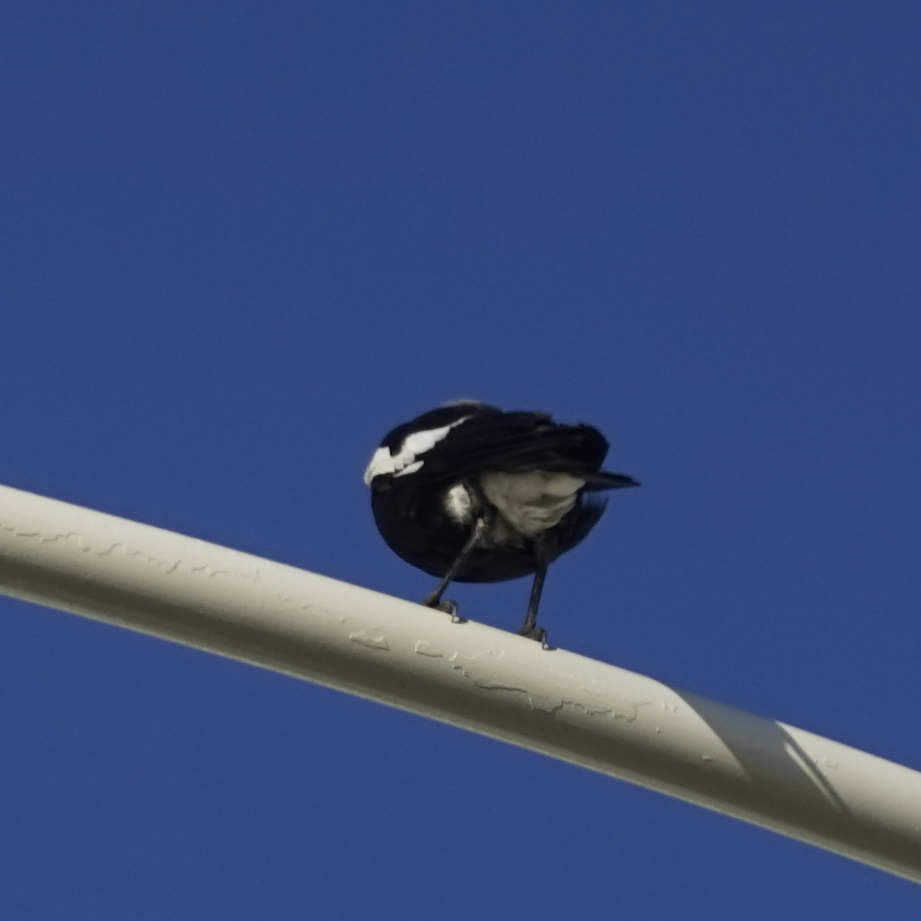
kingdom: Animalia
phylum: Chordata
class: Aves
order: Passeriformes
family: Cracticidae
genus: Gymnorhina
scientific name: Gymnorhina tibicen
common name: Australian magpie
